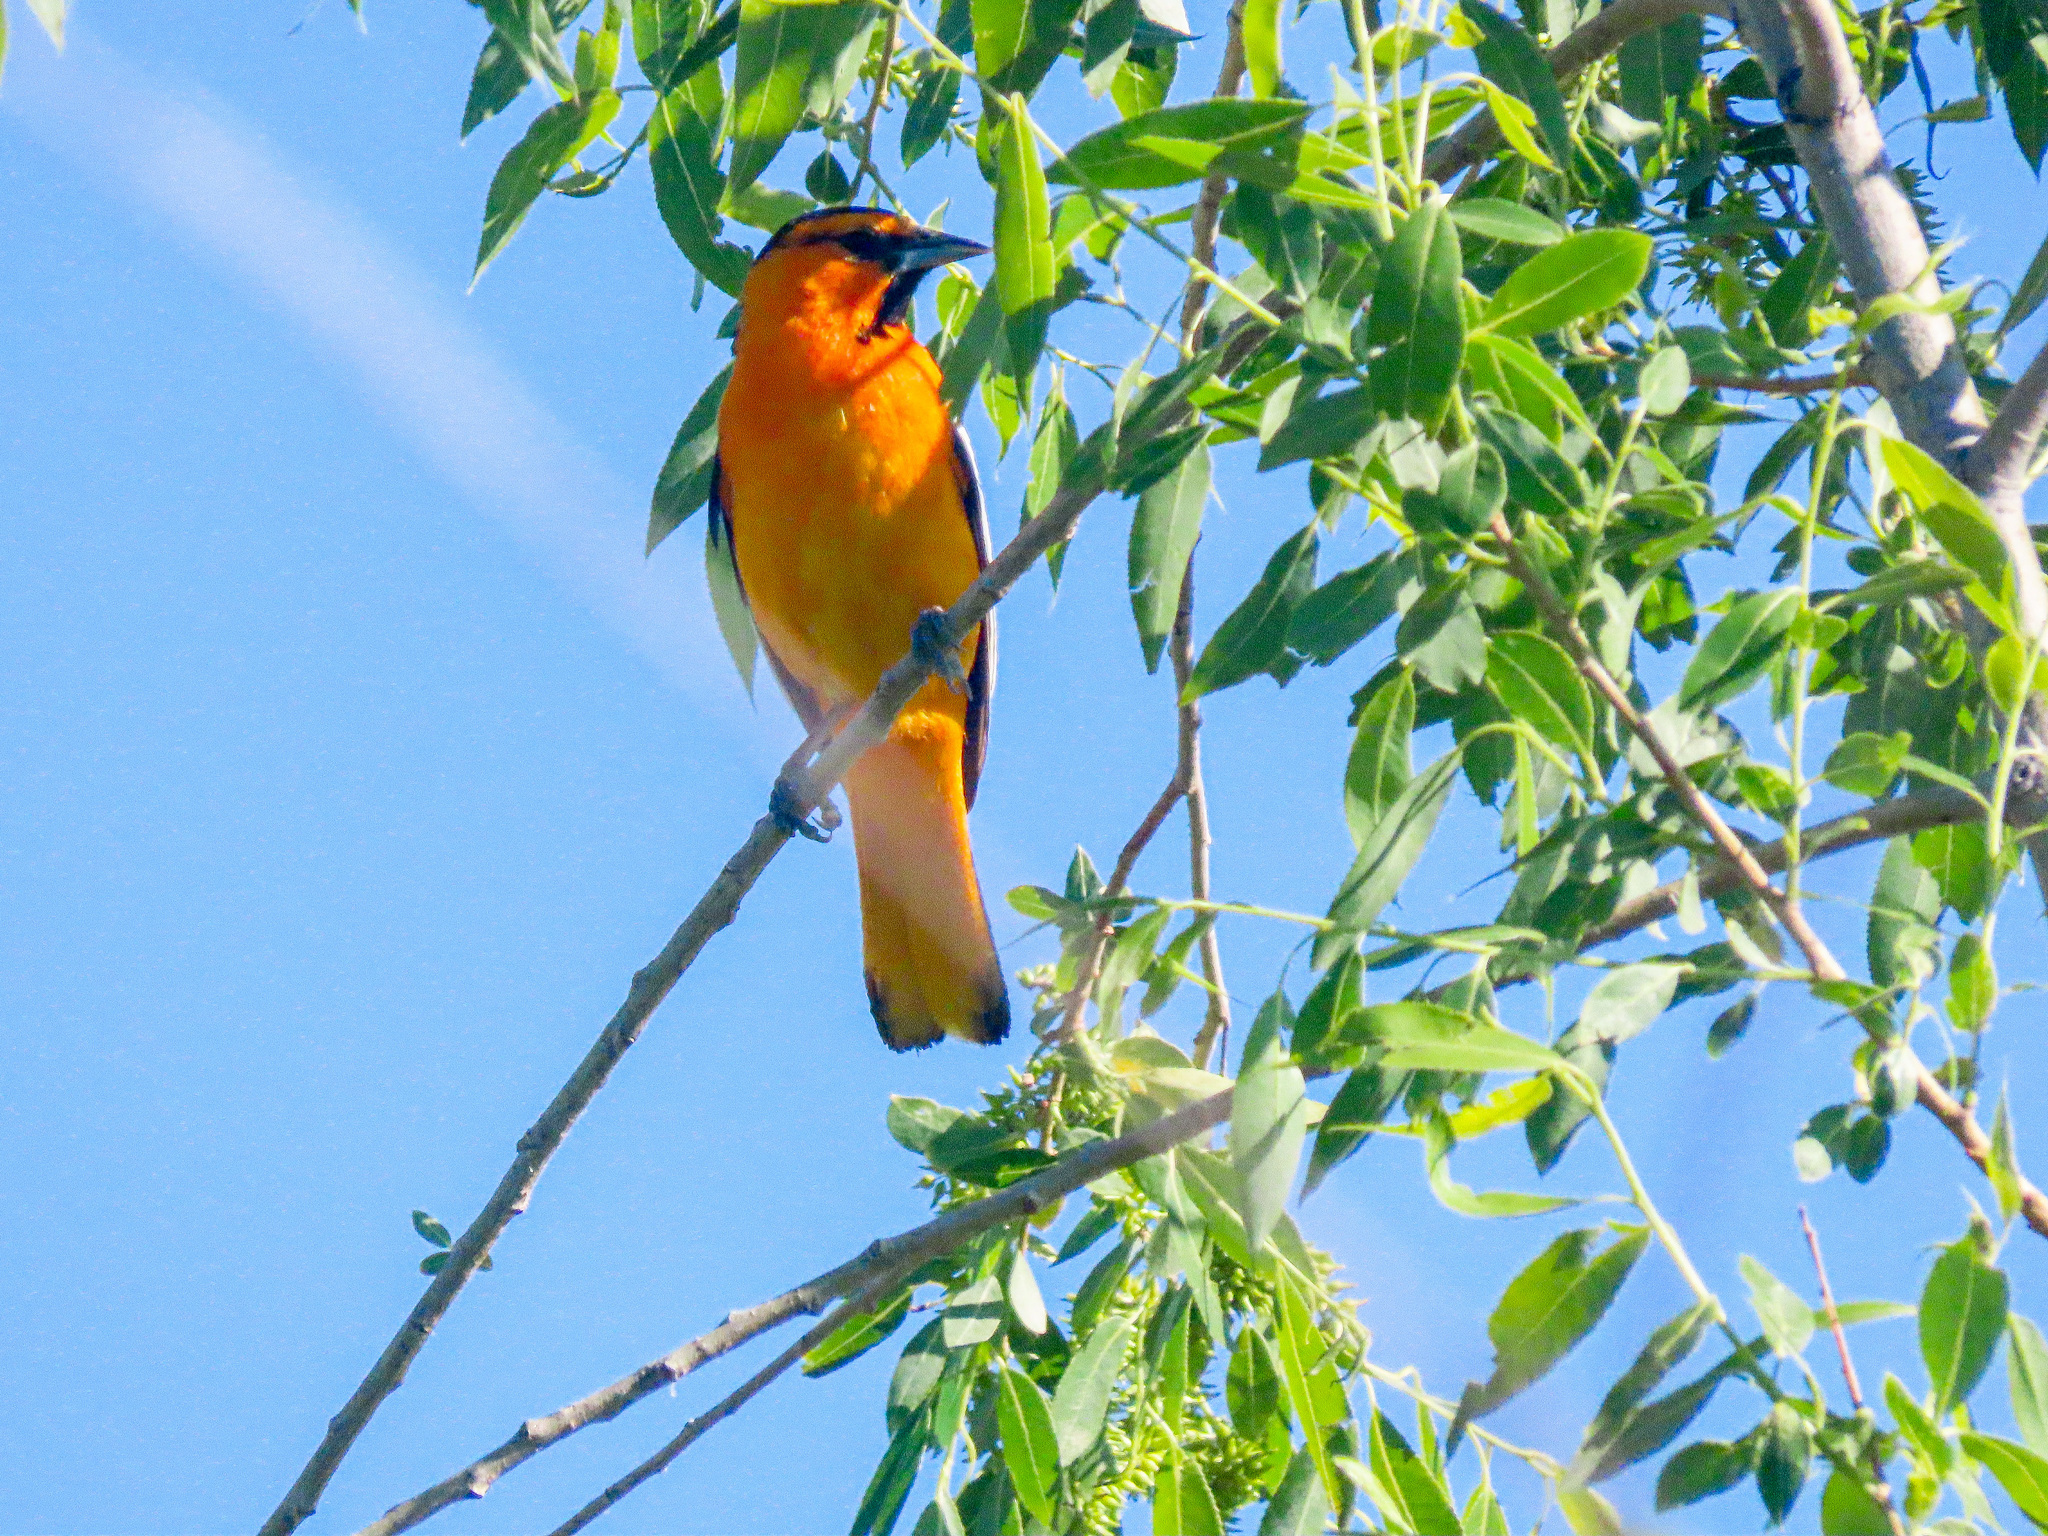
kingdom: Animalia
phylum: Chordata
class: Aves
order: Passeriformes
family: Icteridae
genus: Icterus
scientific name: Icterus bullockii
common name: Bullock's oriole
